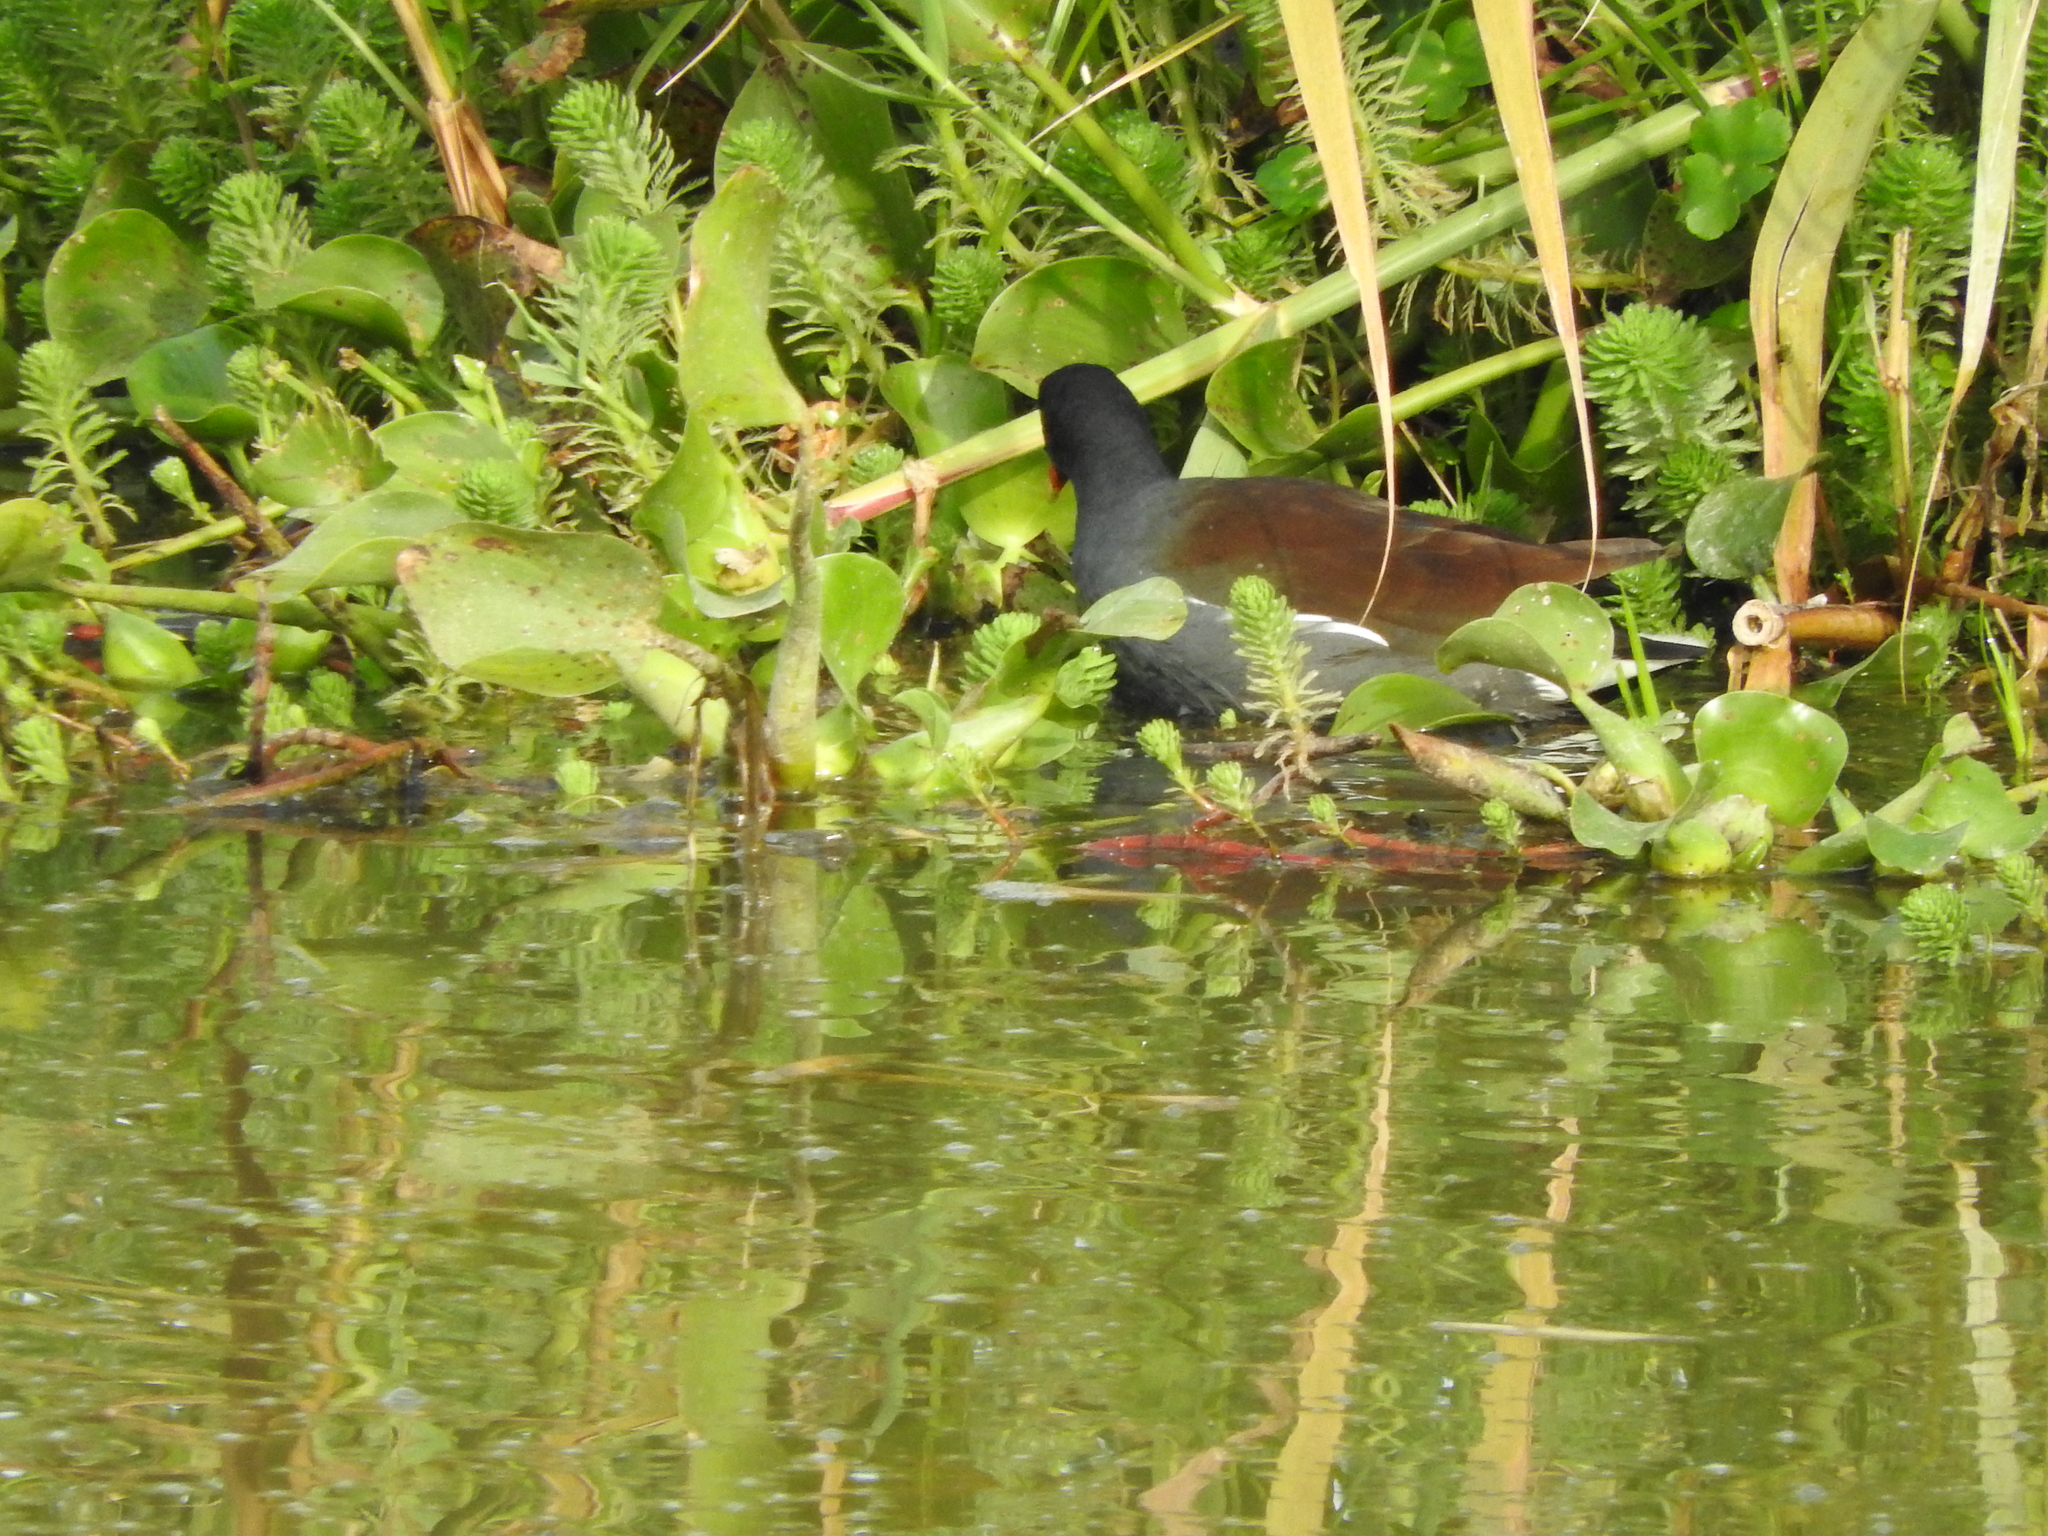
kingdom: Animalia
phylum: Chordata
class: Aves
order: Gruiformes
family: Rallidae
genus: Gallinula
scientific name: Gallinula chloropus
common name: Common moorhen
